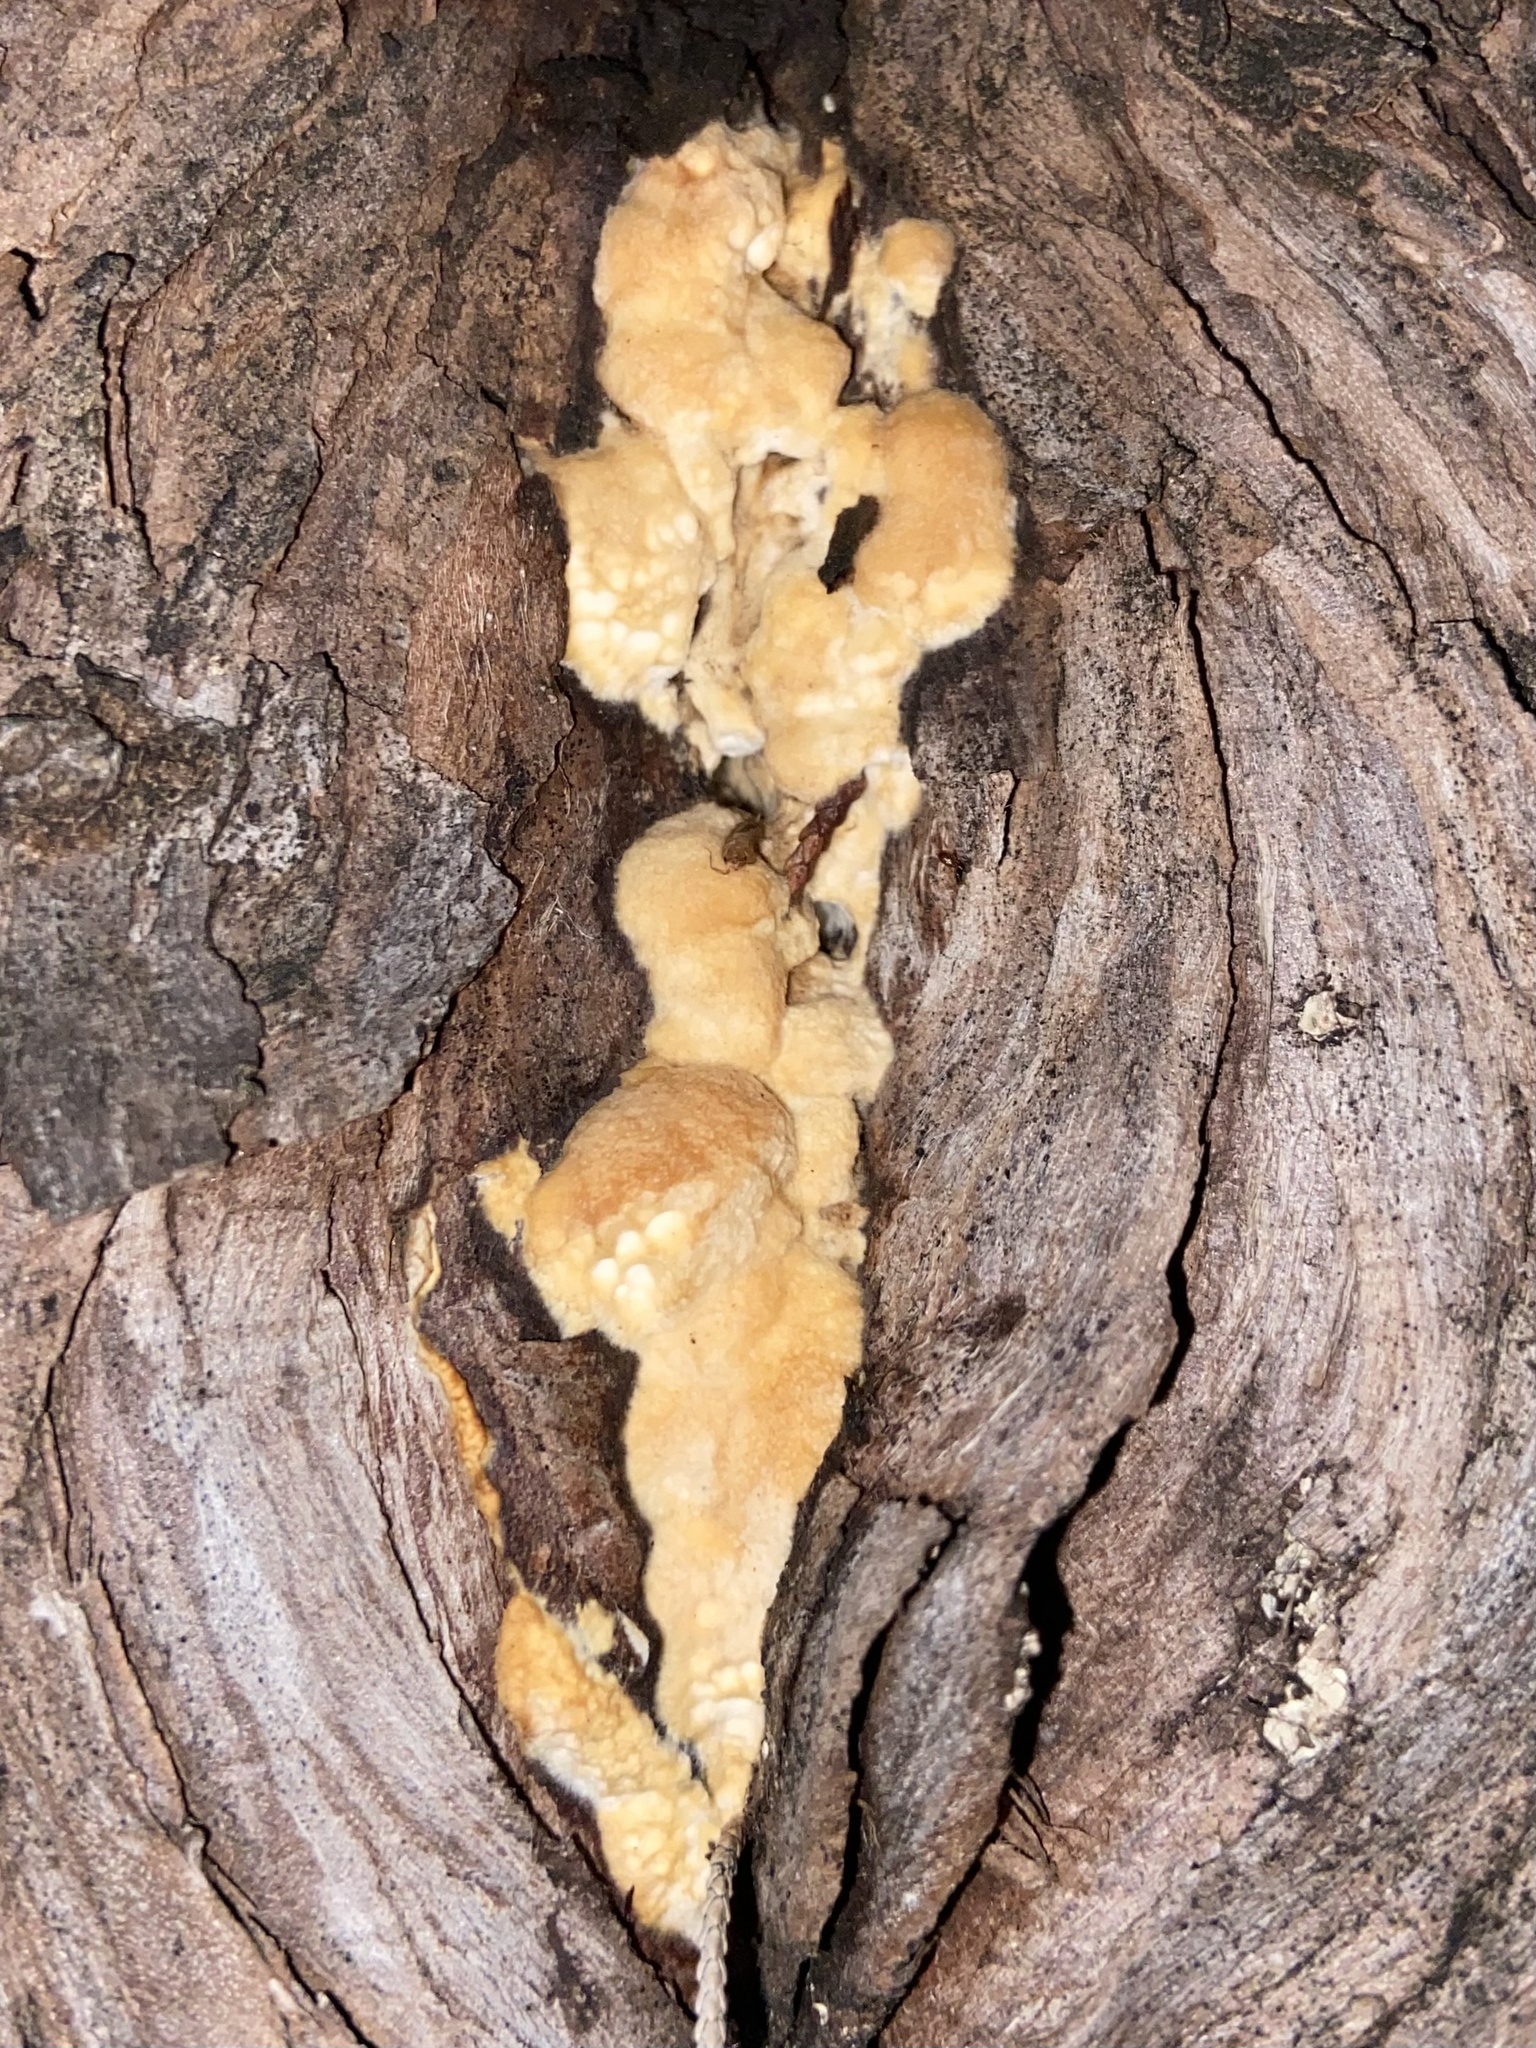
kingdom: Fungi
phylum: Basidiomycota
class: Agaricomycetes
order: Polyporales
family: Fomitopsidaceae
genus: Fomitopsis
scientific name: Fomitopsis
